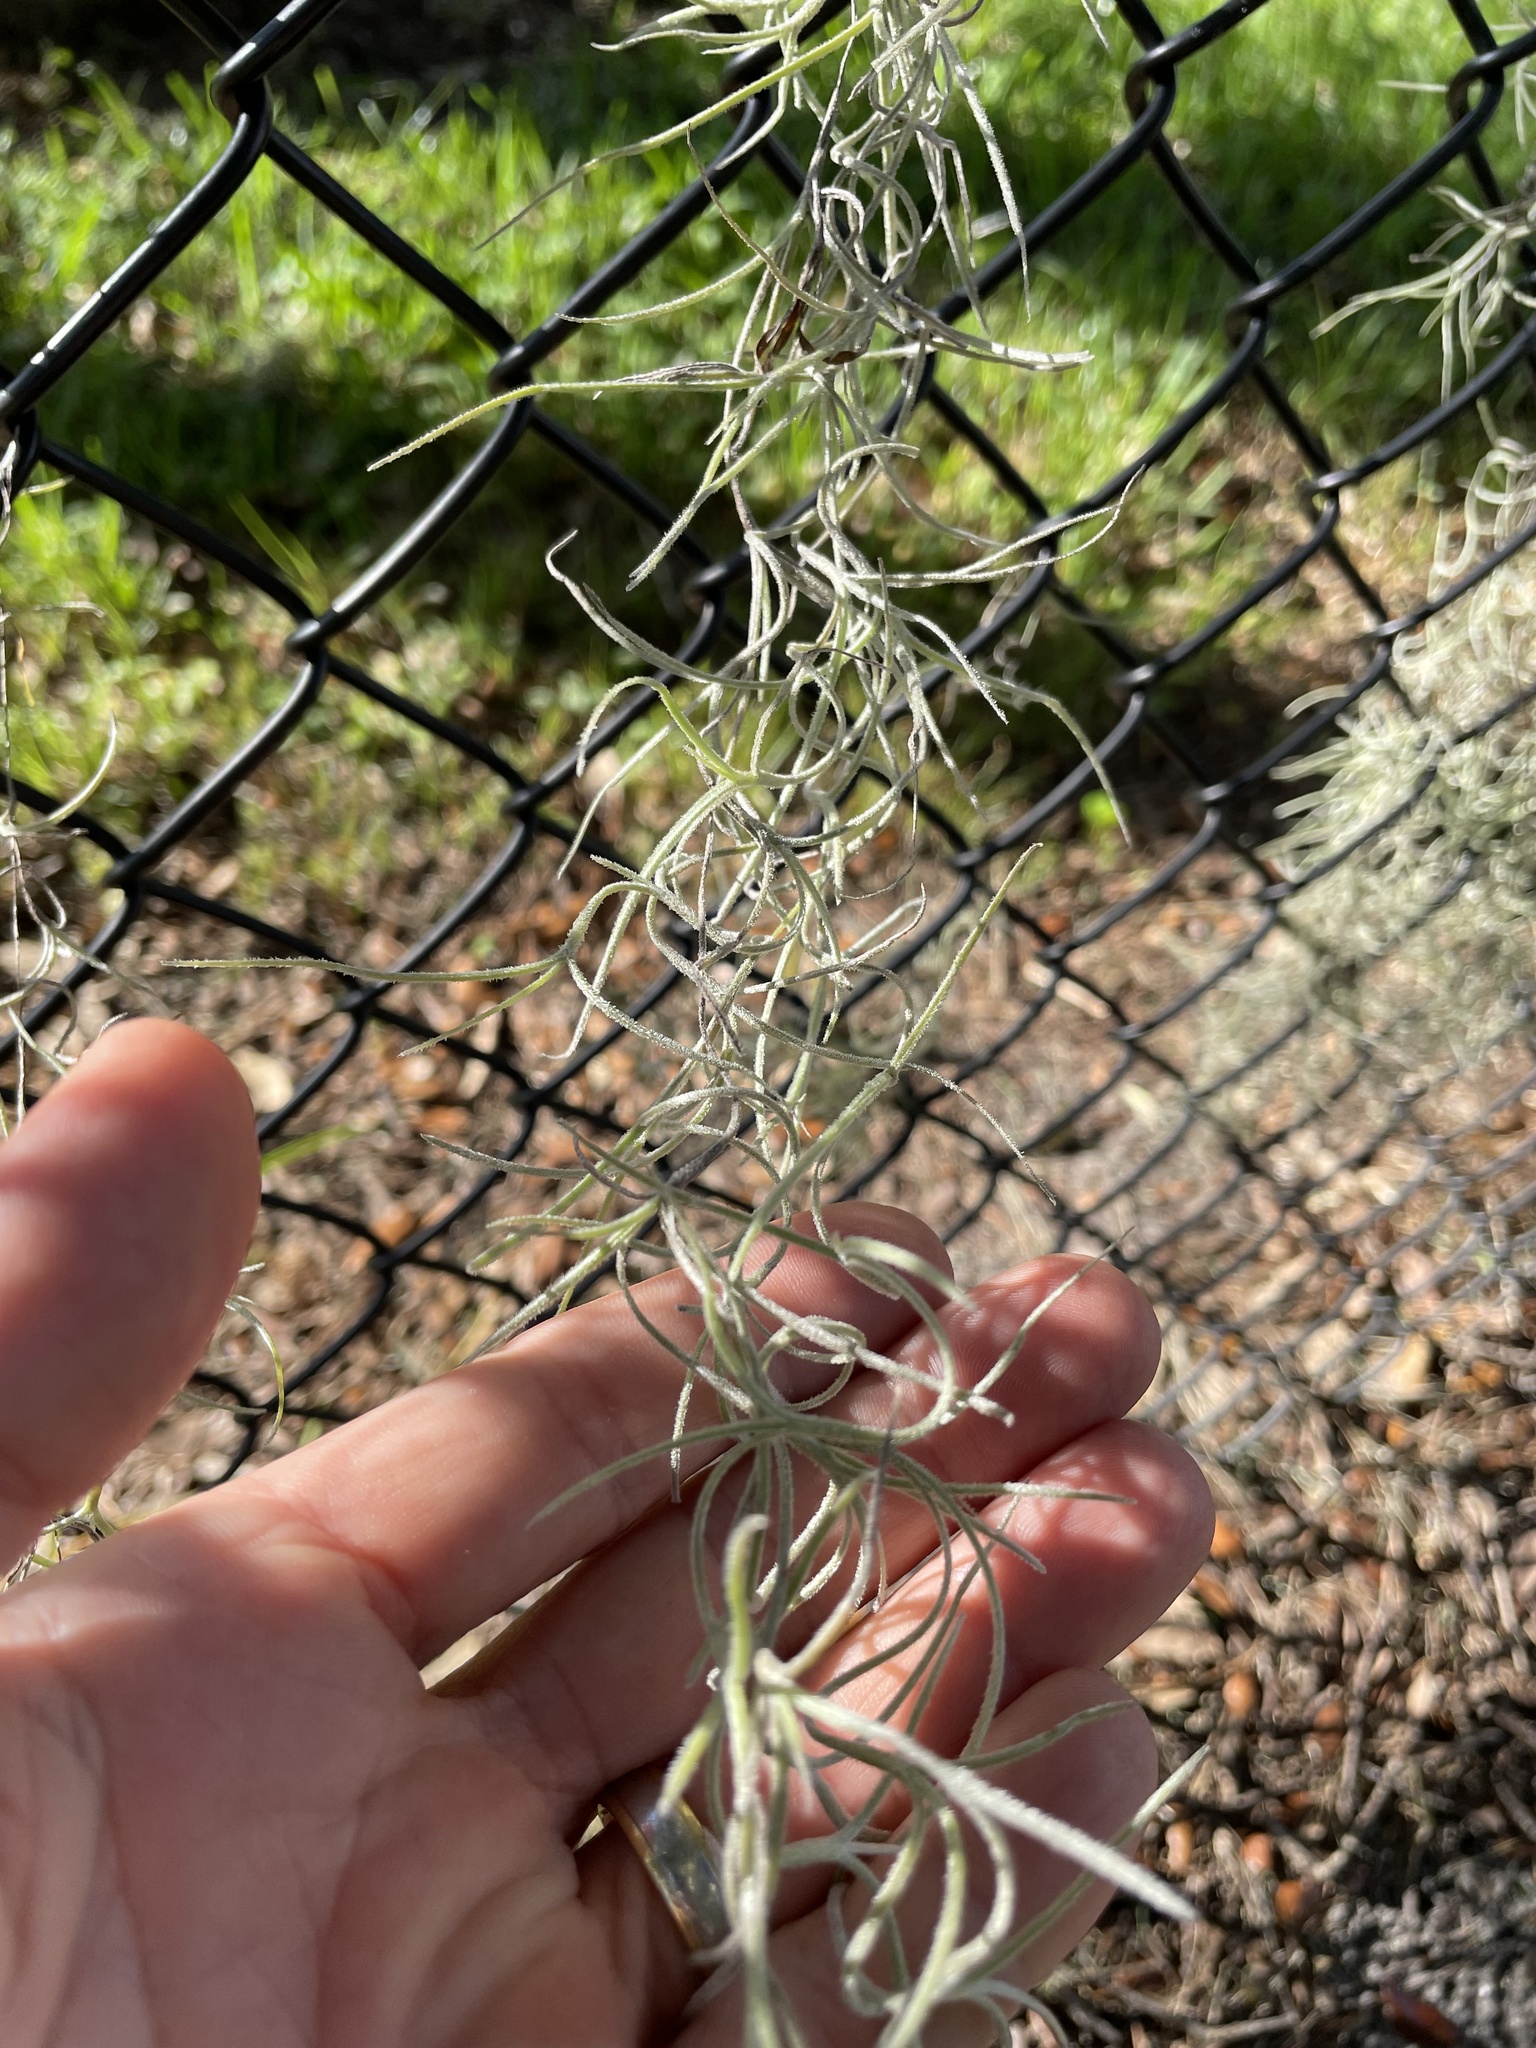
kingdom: Plantae
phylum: Tracheophyta
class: Liliopsida
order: Poales
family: Bromeliaceae
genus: Tillandsia
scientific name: Tillandsia usneoides
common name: Spanish moss
